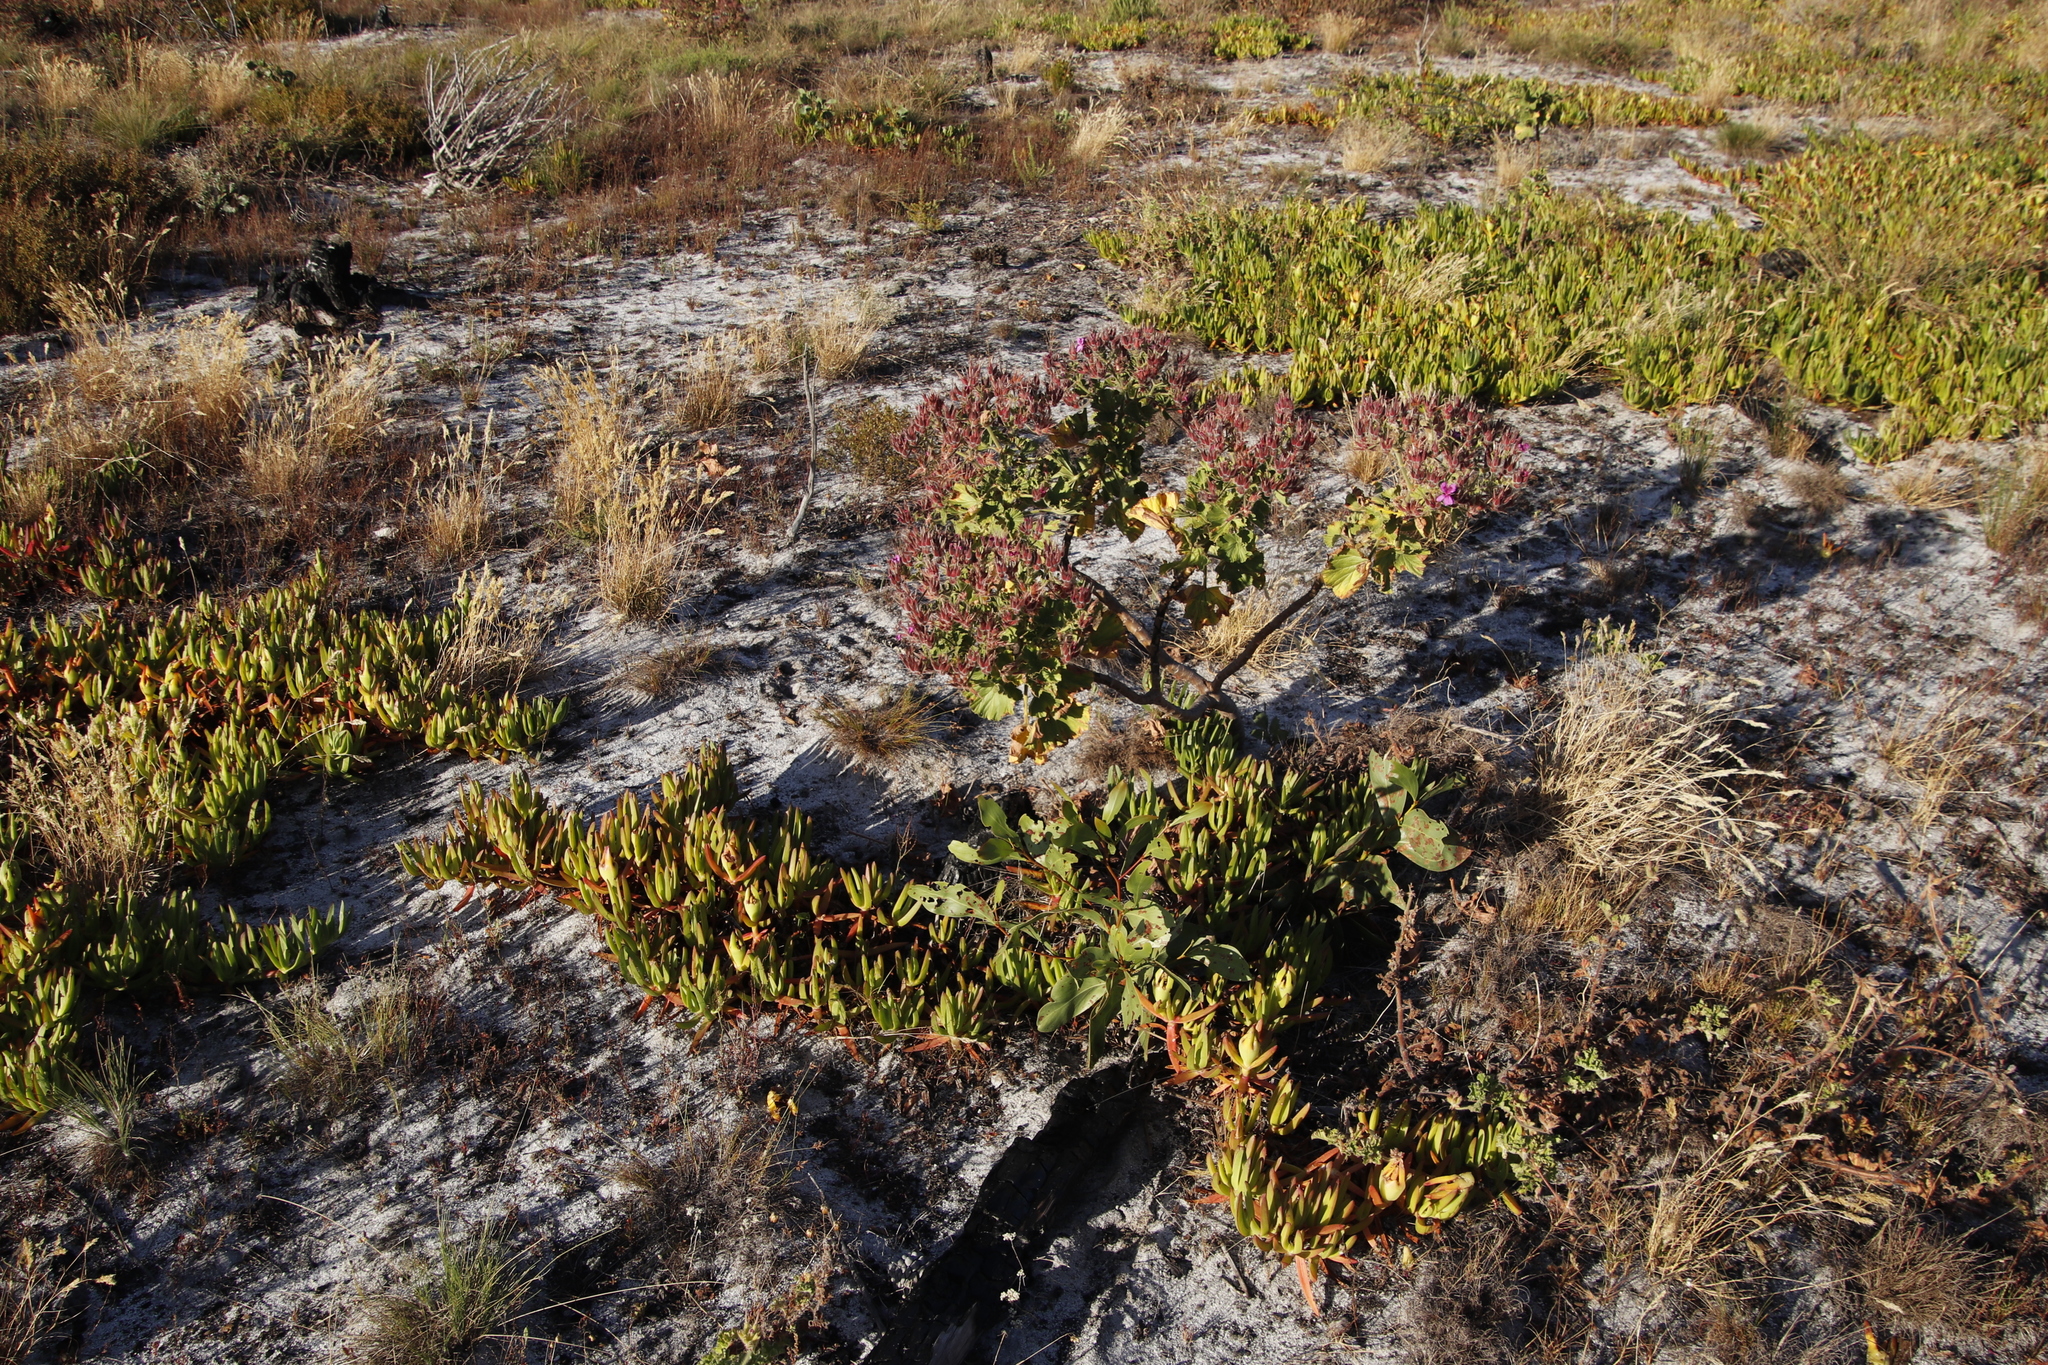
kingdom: Plantae
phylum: Tracheophyta
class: Magnoliopsida
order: Caryophyllales
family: Aizoaceae
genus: Carpobrotus
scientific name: Carpobrotus edulis
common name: Hottentot-fig
